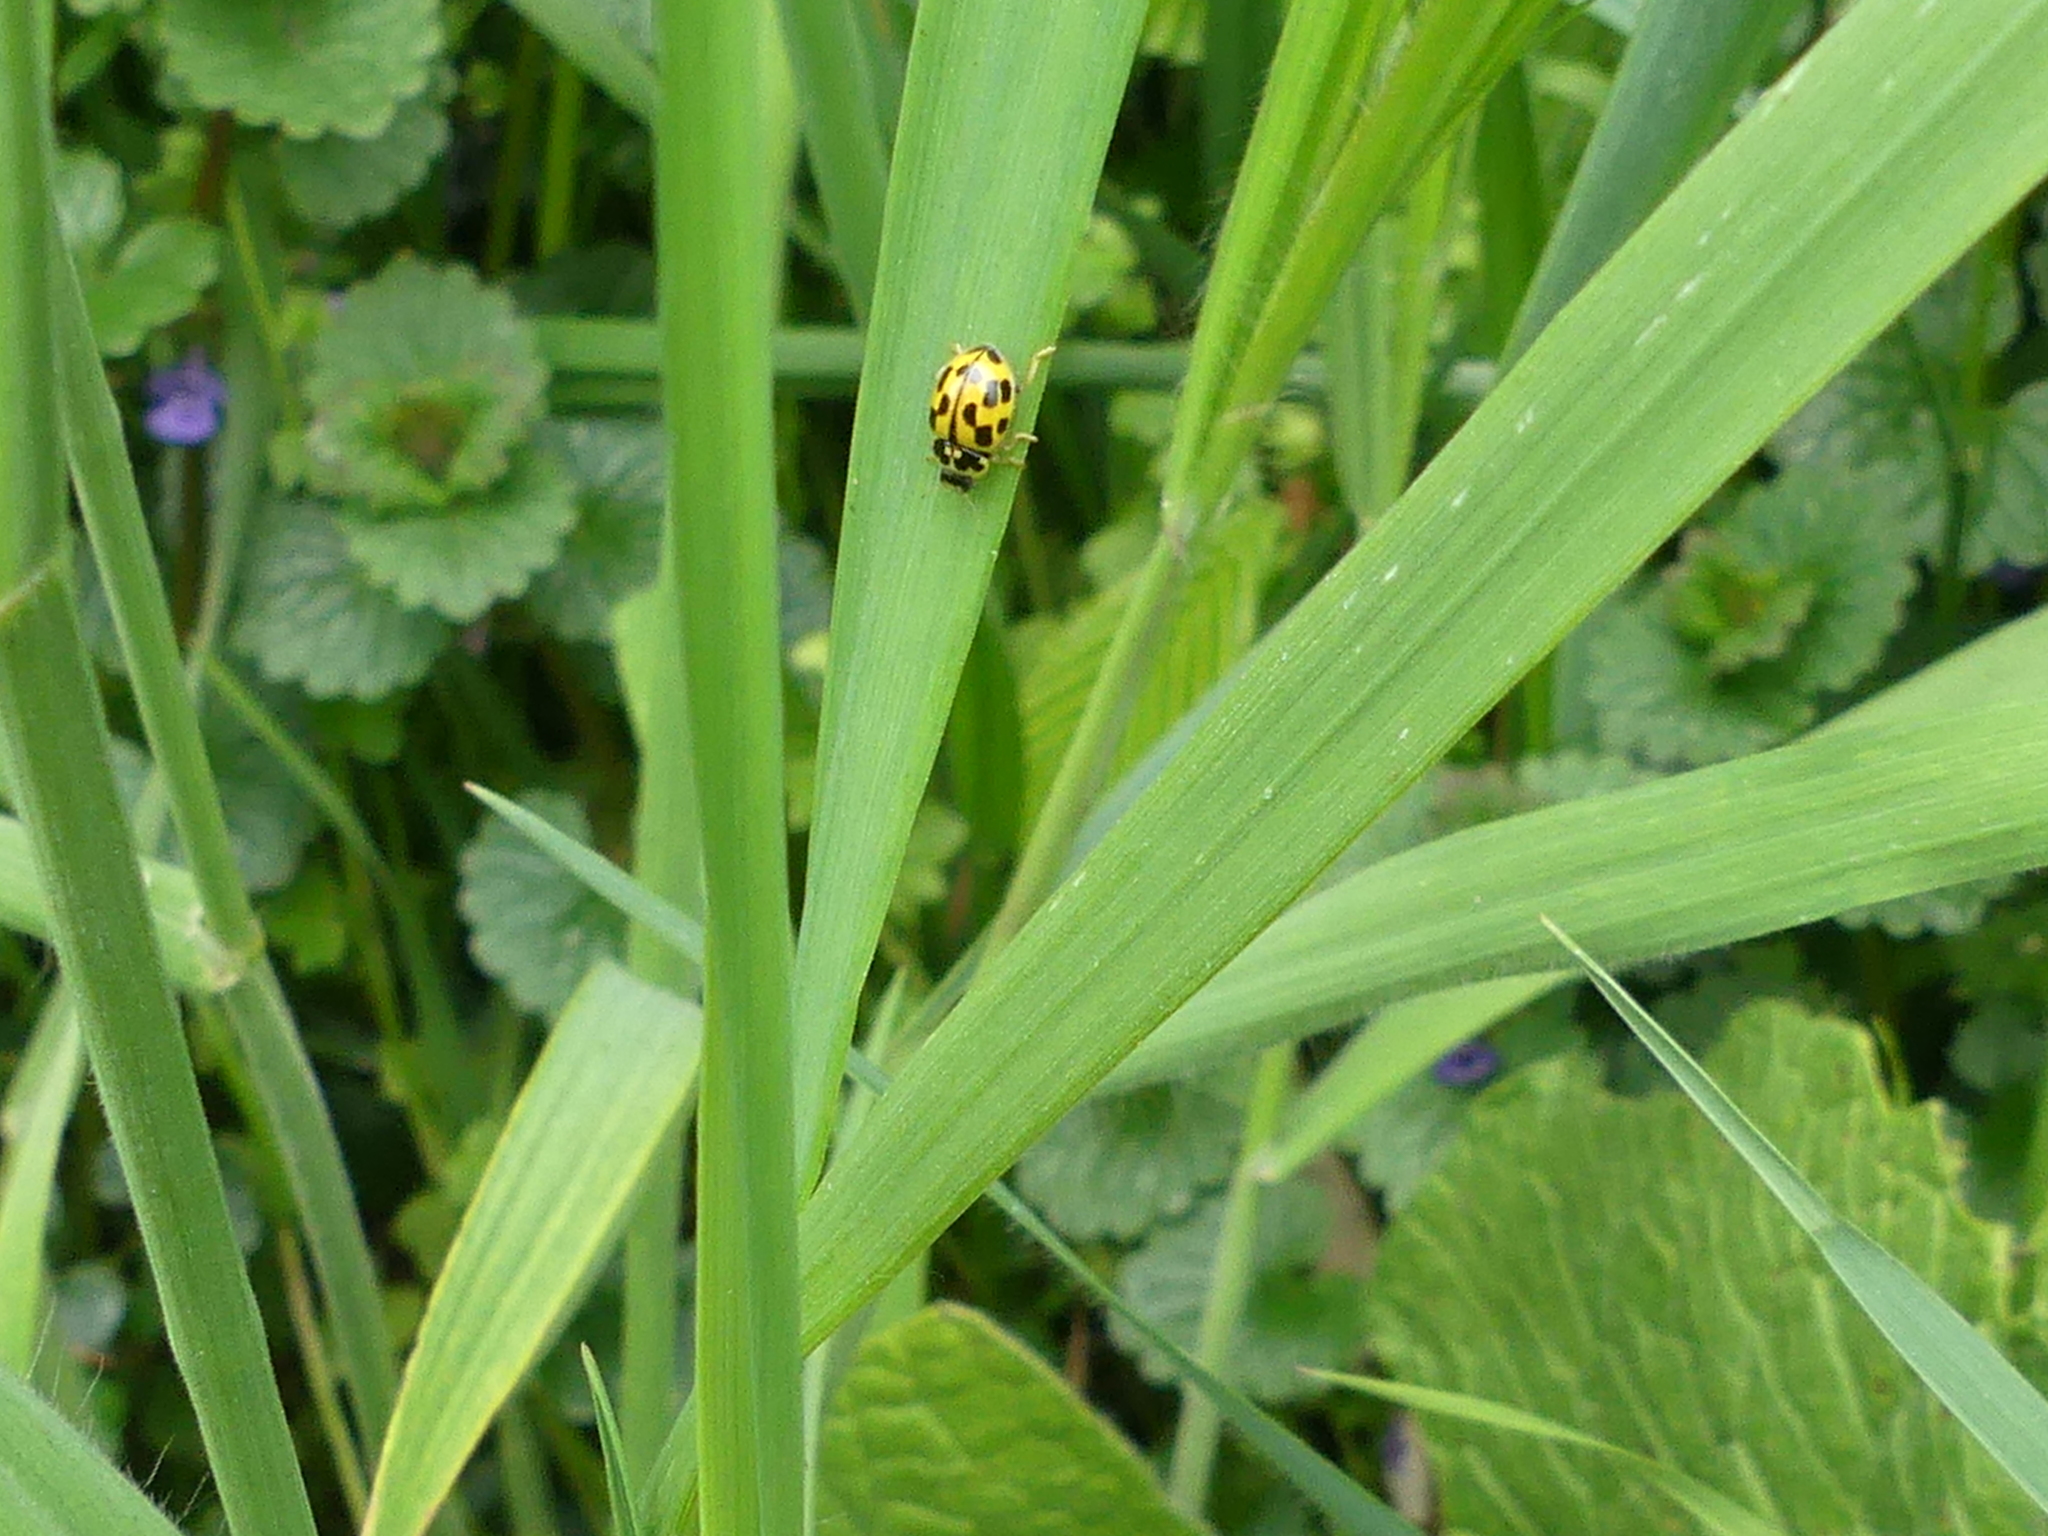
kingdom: Animalia
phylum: Arthropoda
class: Insecta
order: Coleoptera
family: Coccinellidae
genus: Propylaea
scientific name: Propylaea quatuordecimpunctata
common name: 14-spotted ladybird beetle
